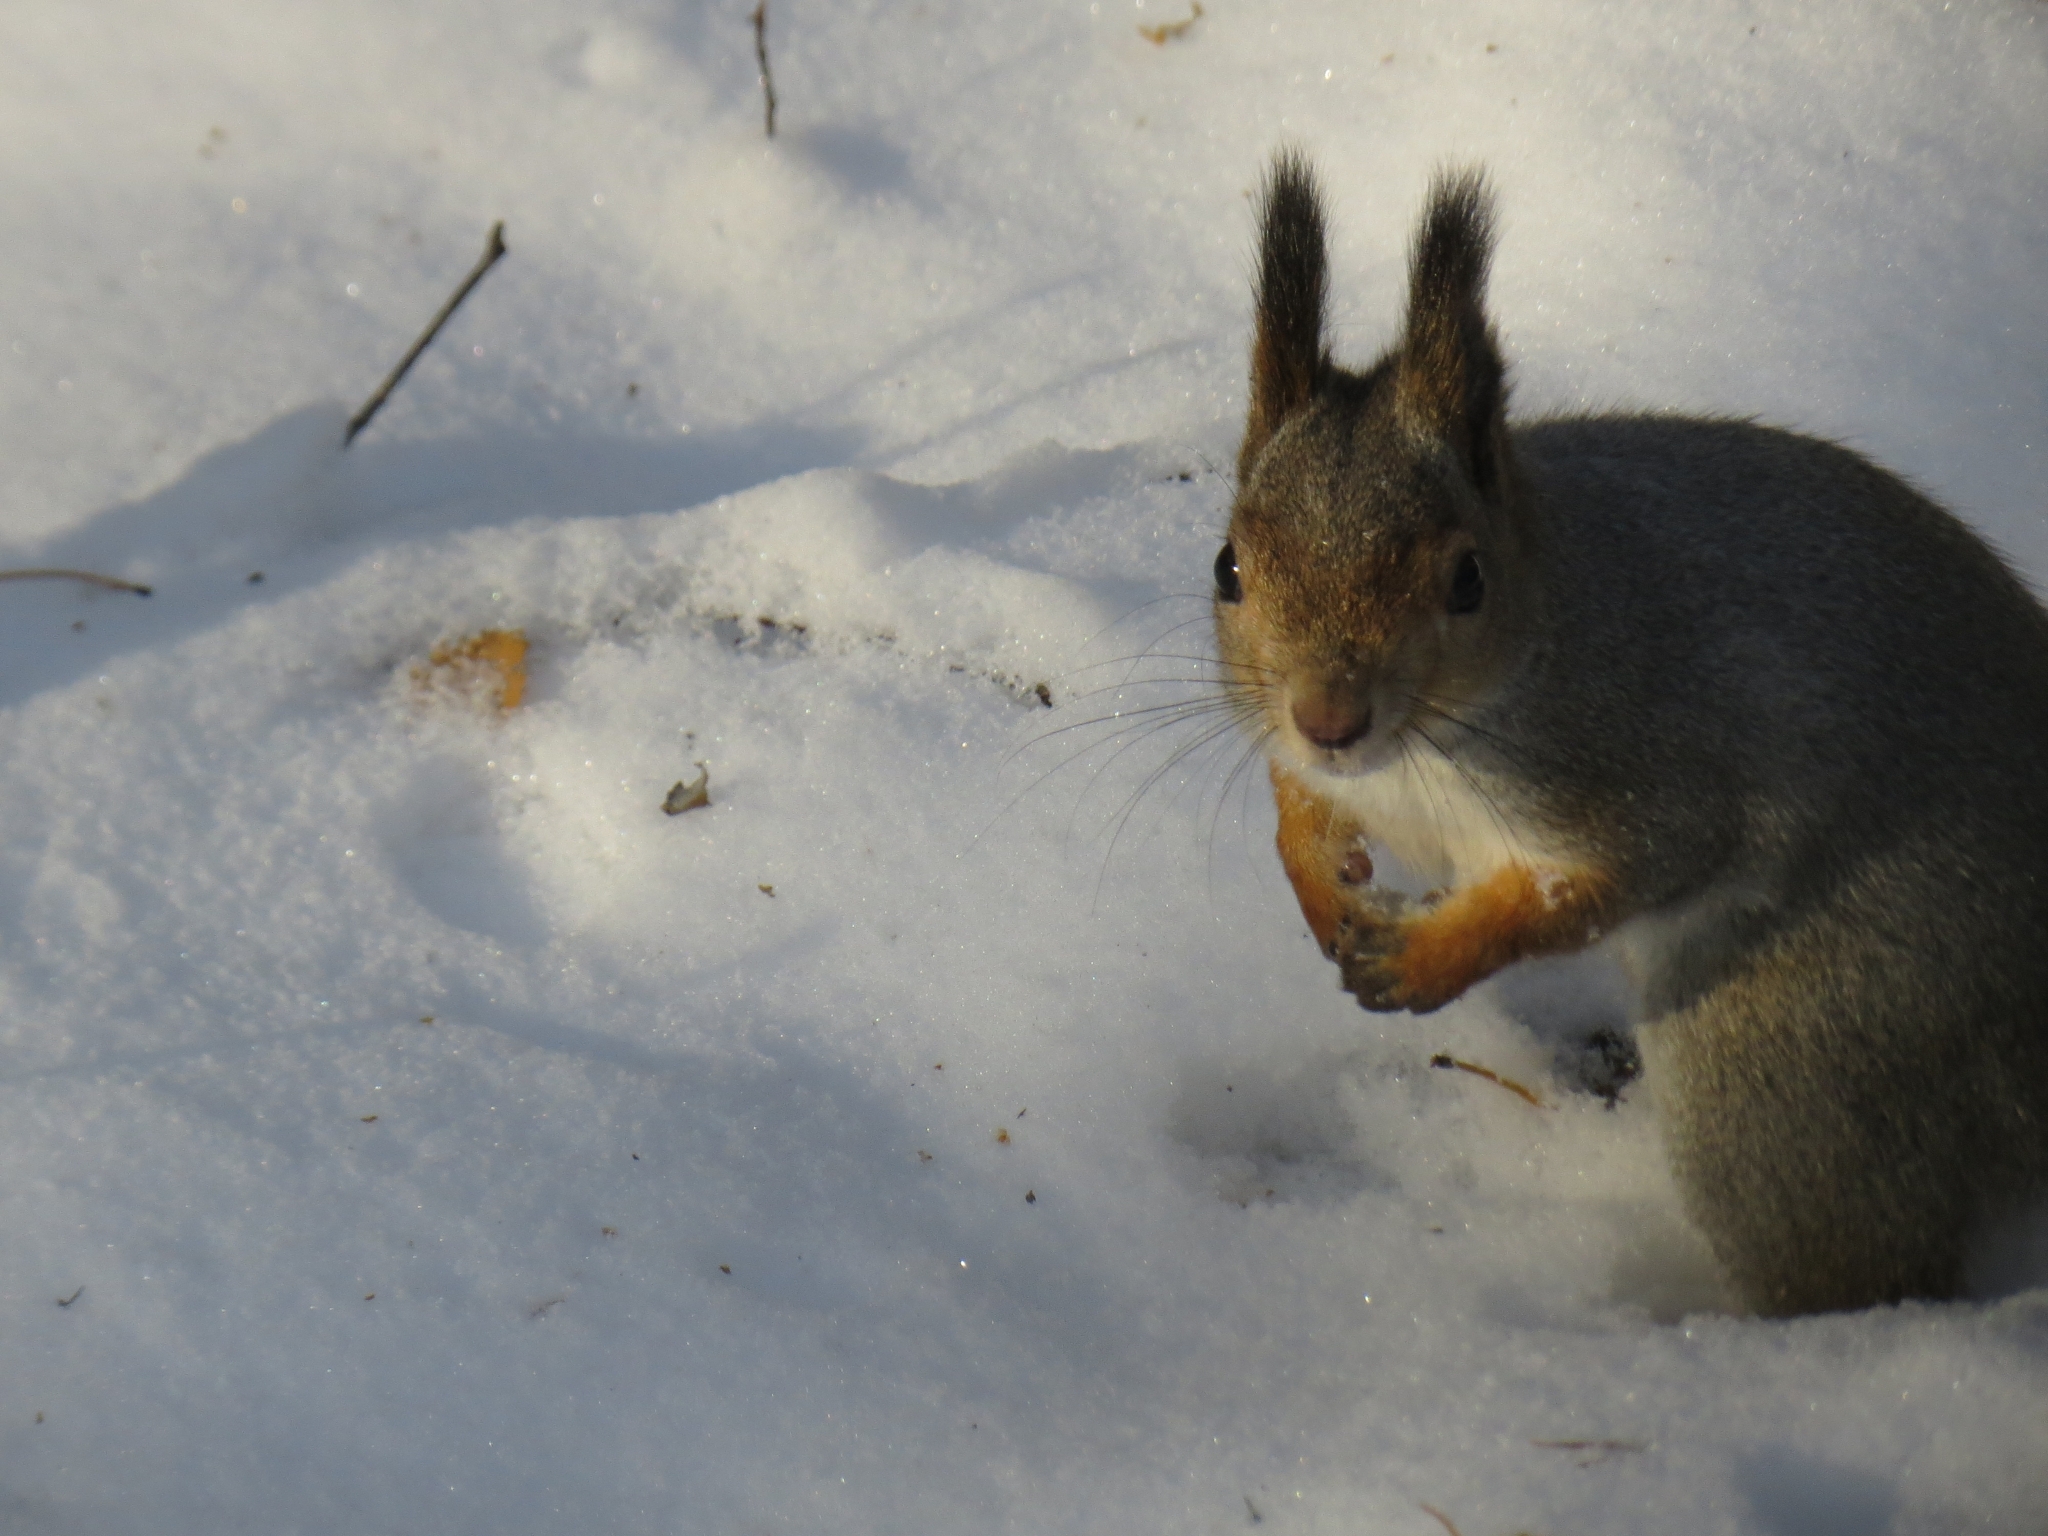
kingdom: Animalia
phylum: Chordata
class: Mammalia
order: Rodentia
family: Sciuridae
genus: Sciurus
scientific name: Sciurus vulgaris
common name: Eurasian red squirrel
